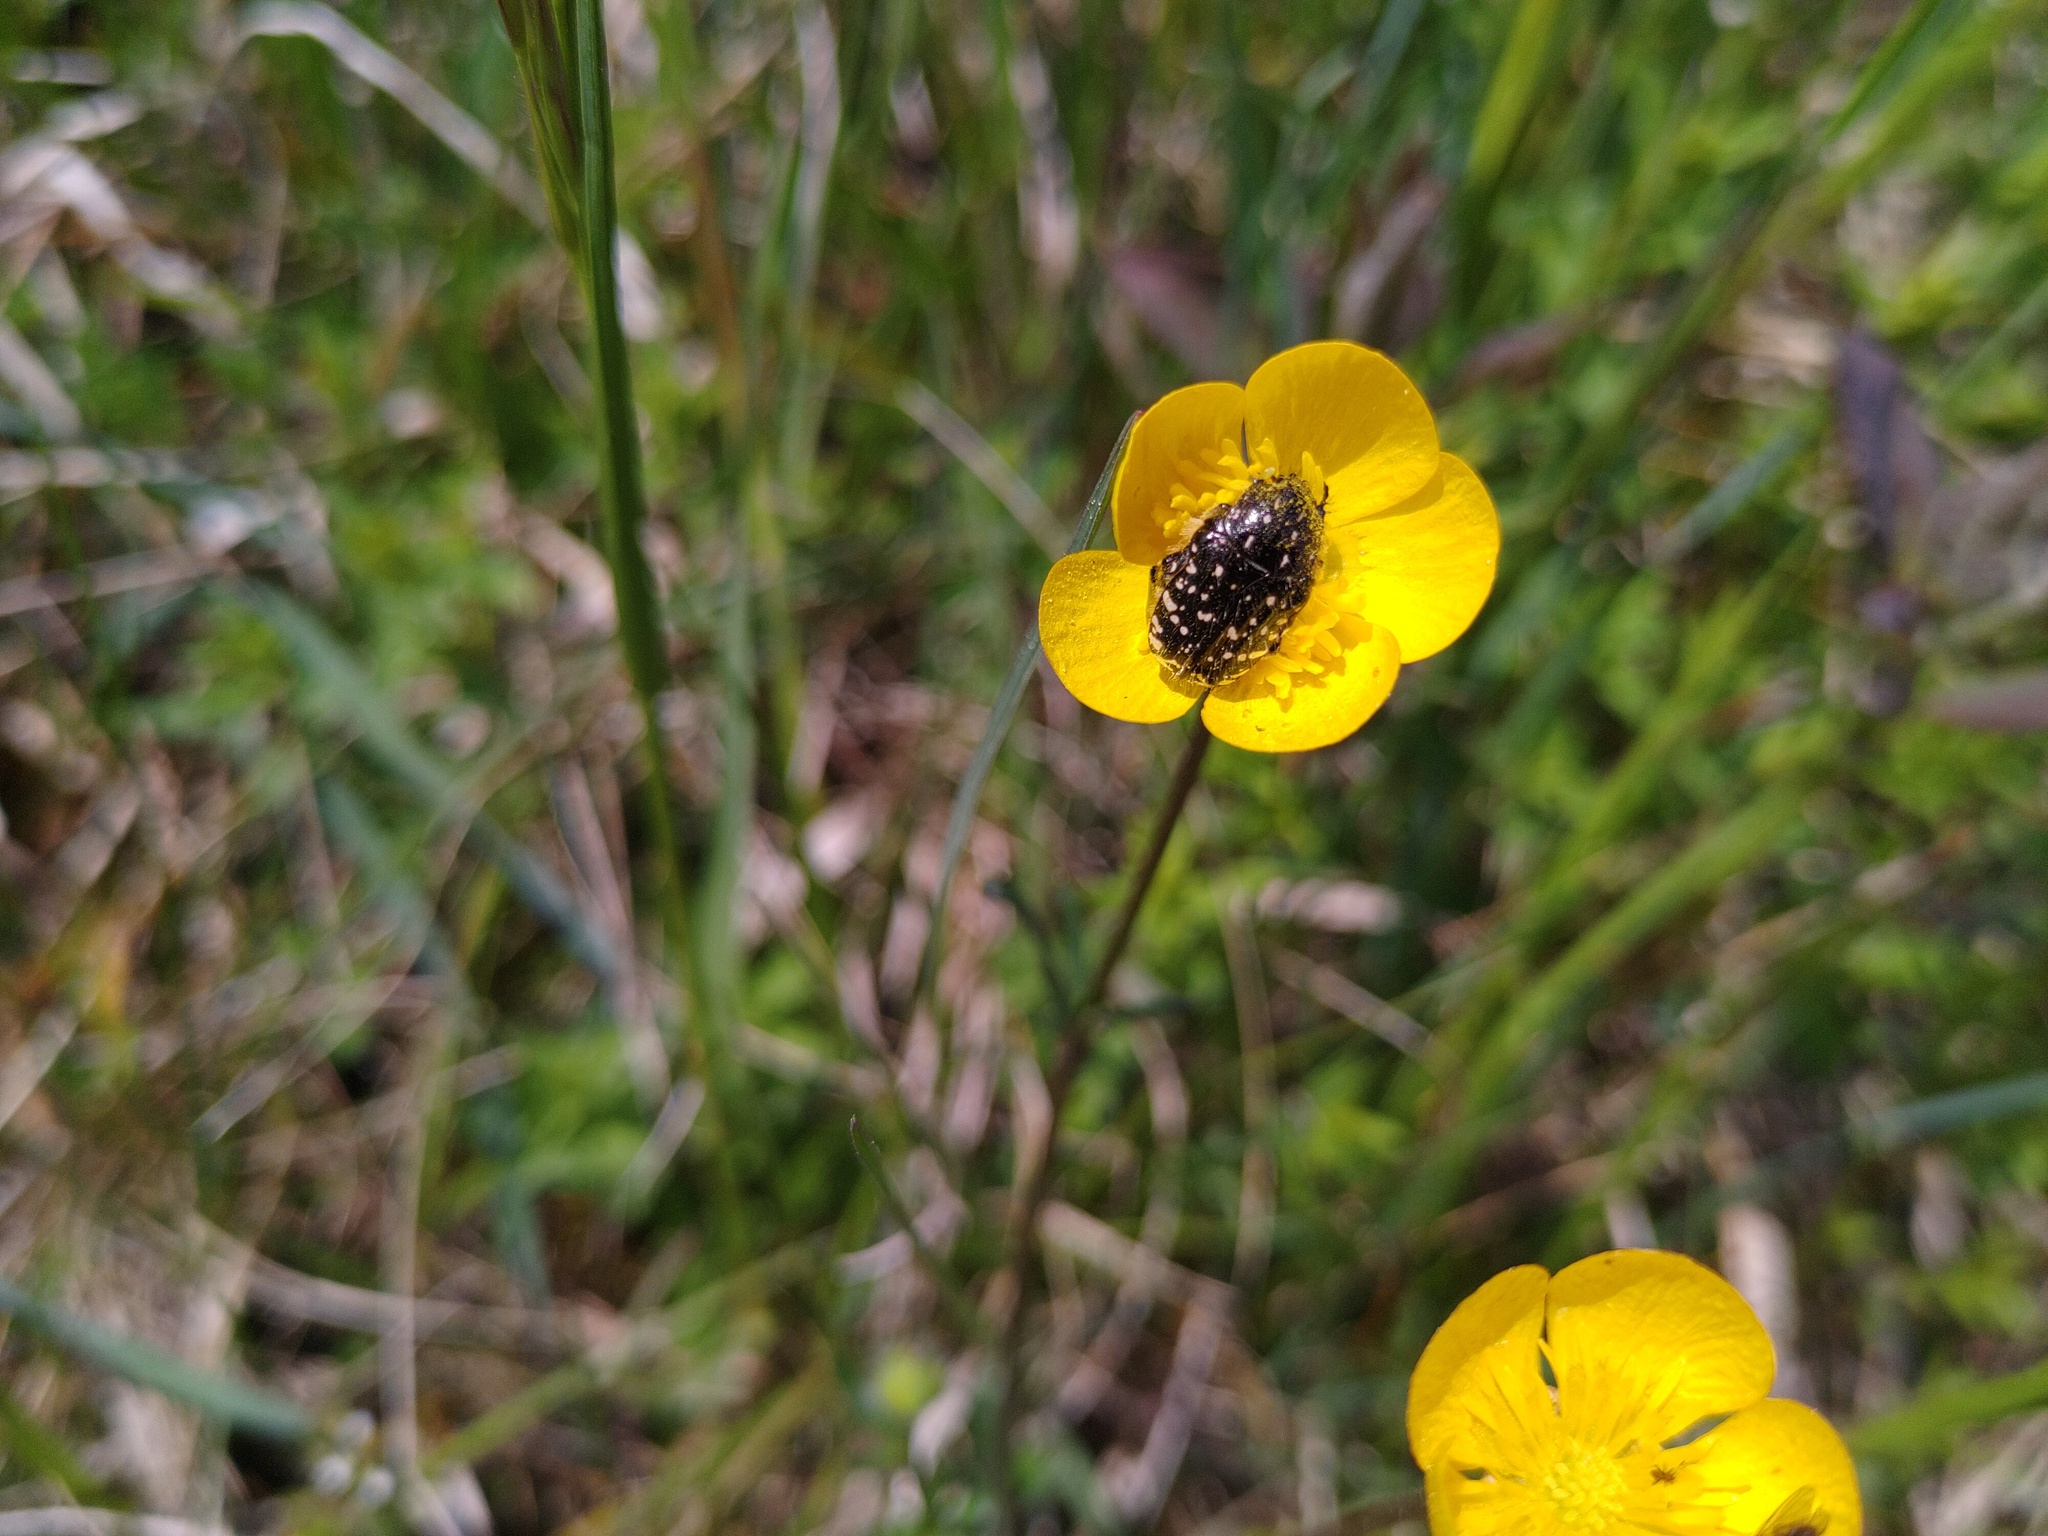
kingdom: Animalia
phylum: Arthropoda
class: Insecta
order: Coleoptera
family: Scarabaeidae
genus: Oxythyrea
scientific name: Oxythyrea funesta
